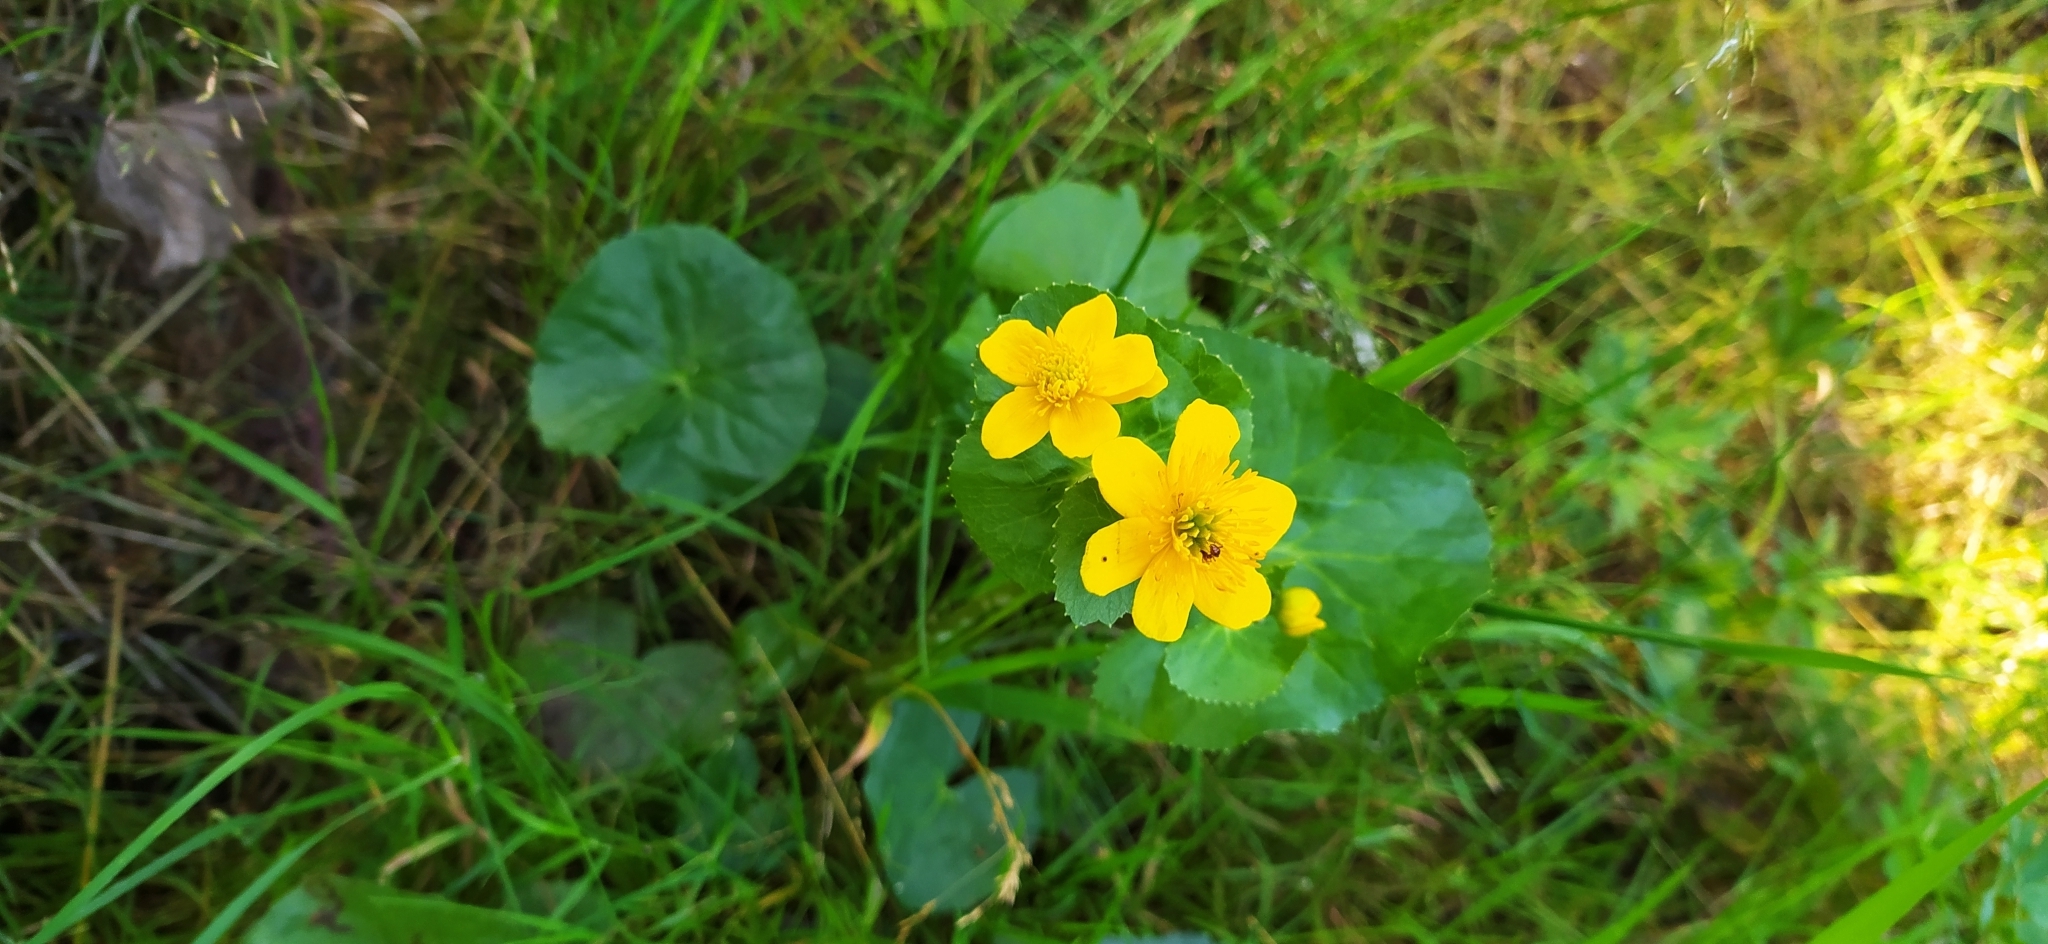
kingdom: Plantae
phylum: Tracheophyta
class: Magnoliopsida
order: Ranunculales
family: Ranunculaceae
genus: Caltha
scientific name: Caltha palustris
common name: Marsh marigold
